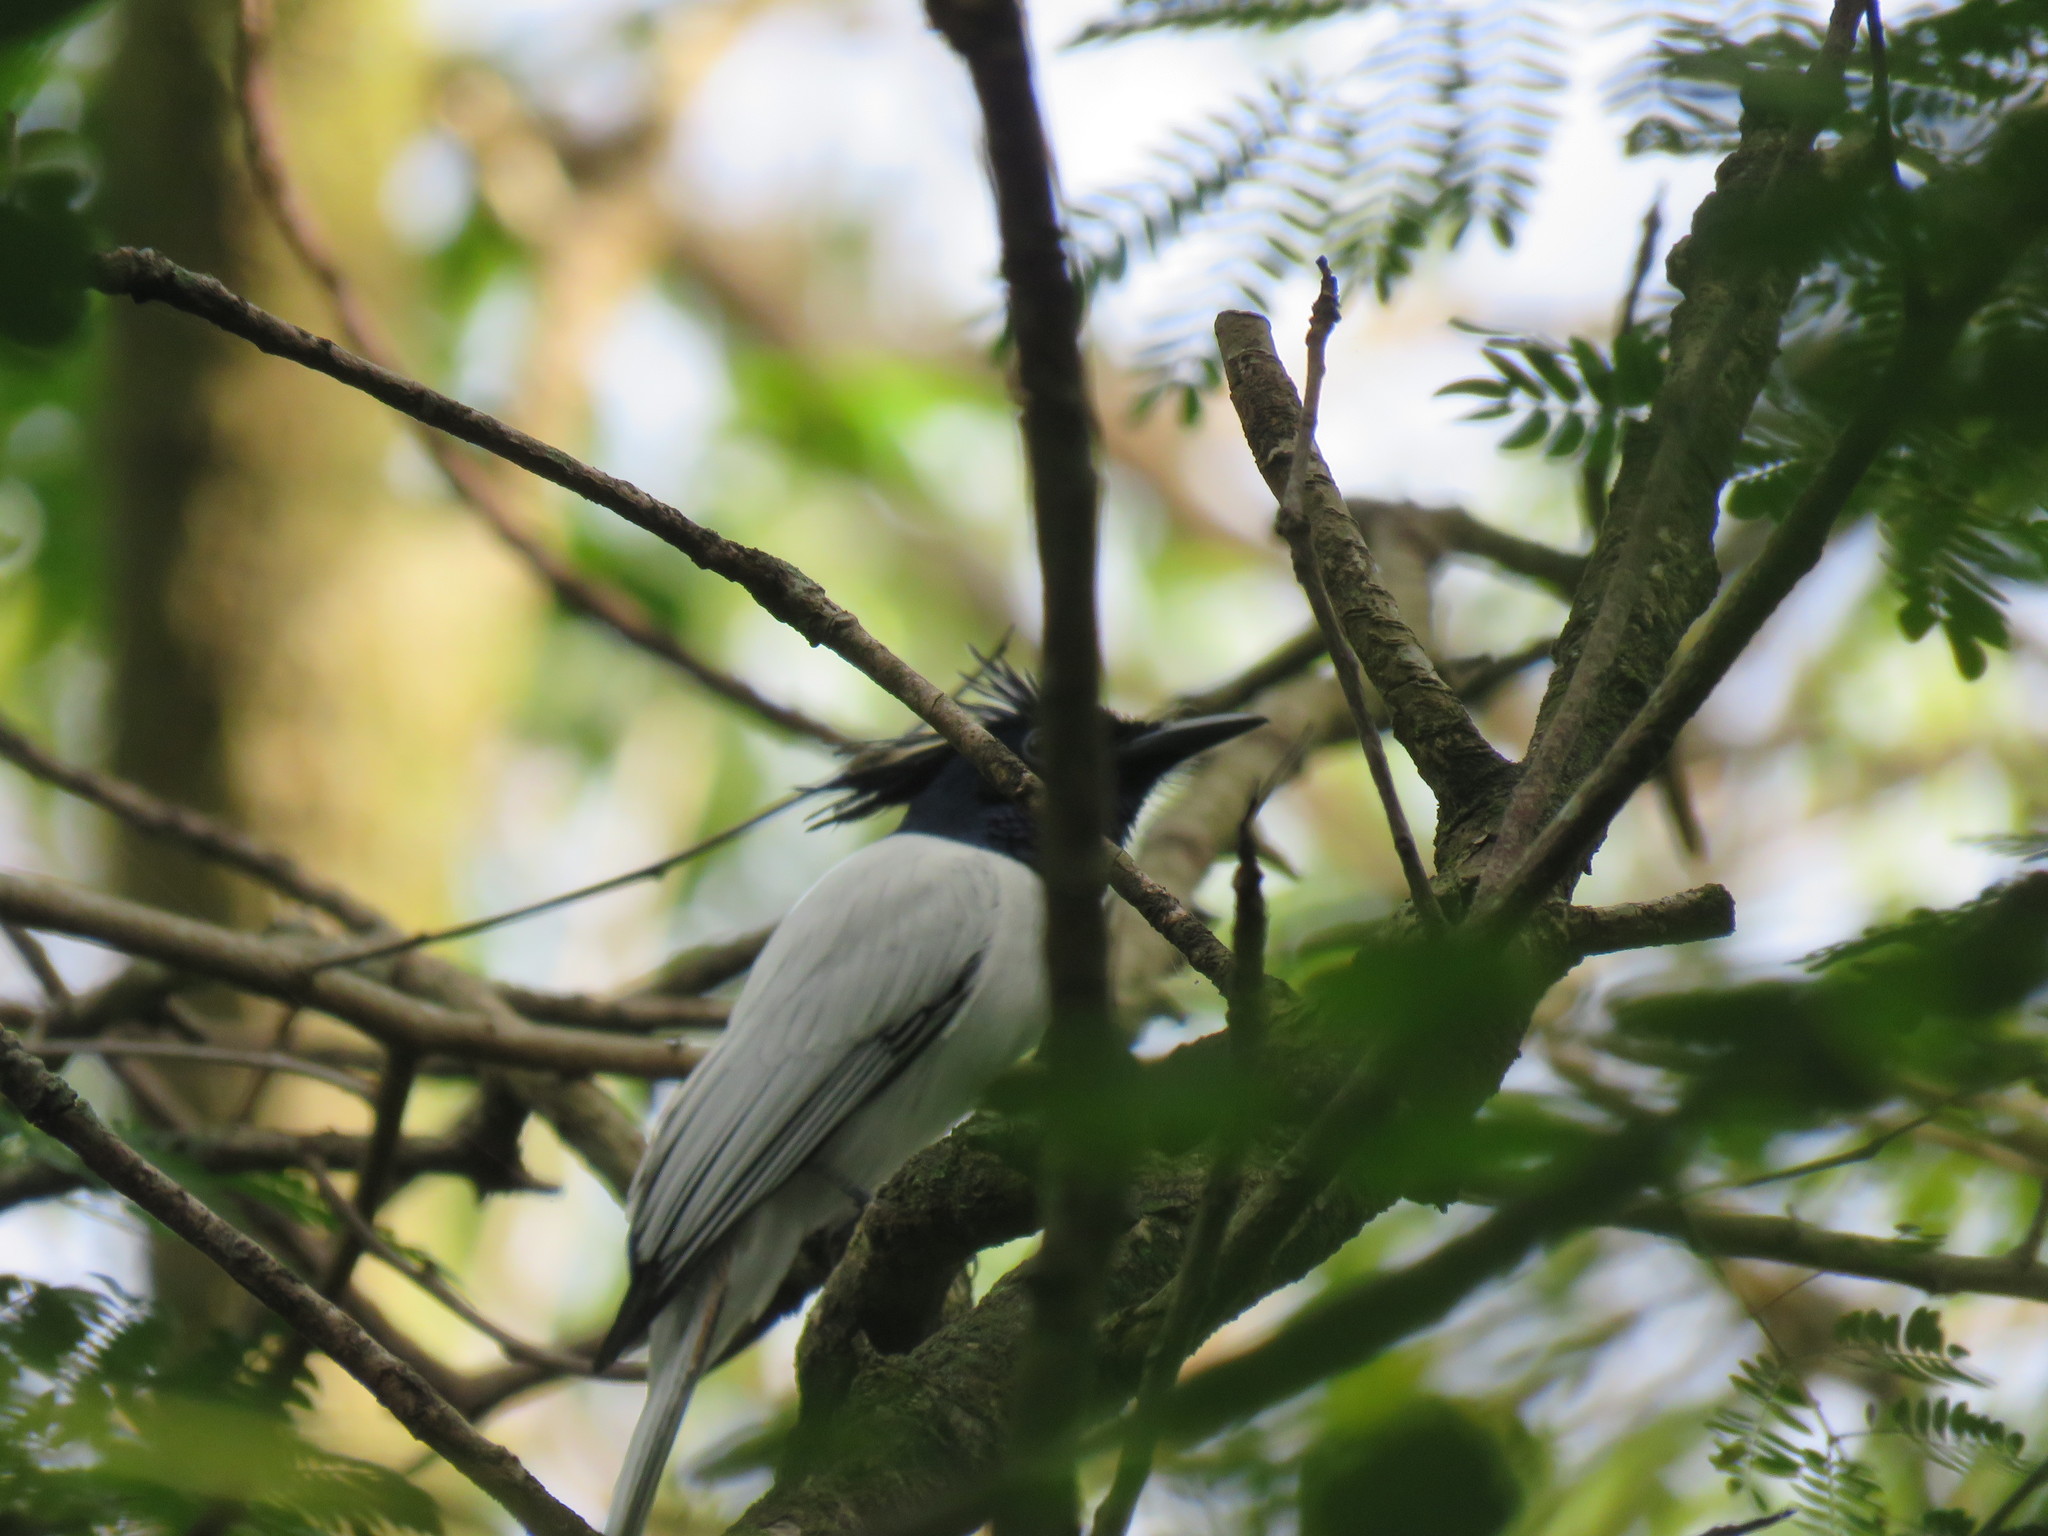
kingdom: Animalia
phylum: Chordata
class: Aves
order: Passeriformes
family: Monarchidae
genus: Terpsiphone
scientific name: Terpsiphone paradisi
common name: Indian paradise flycatcher
